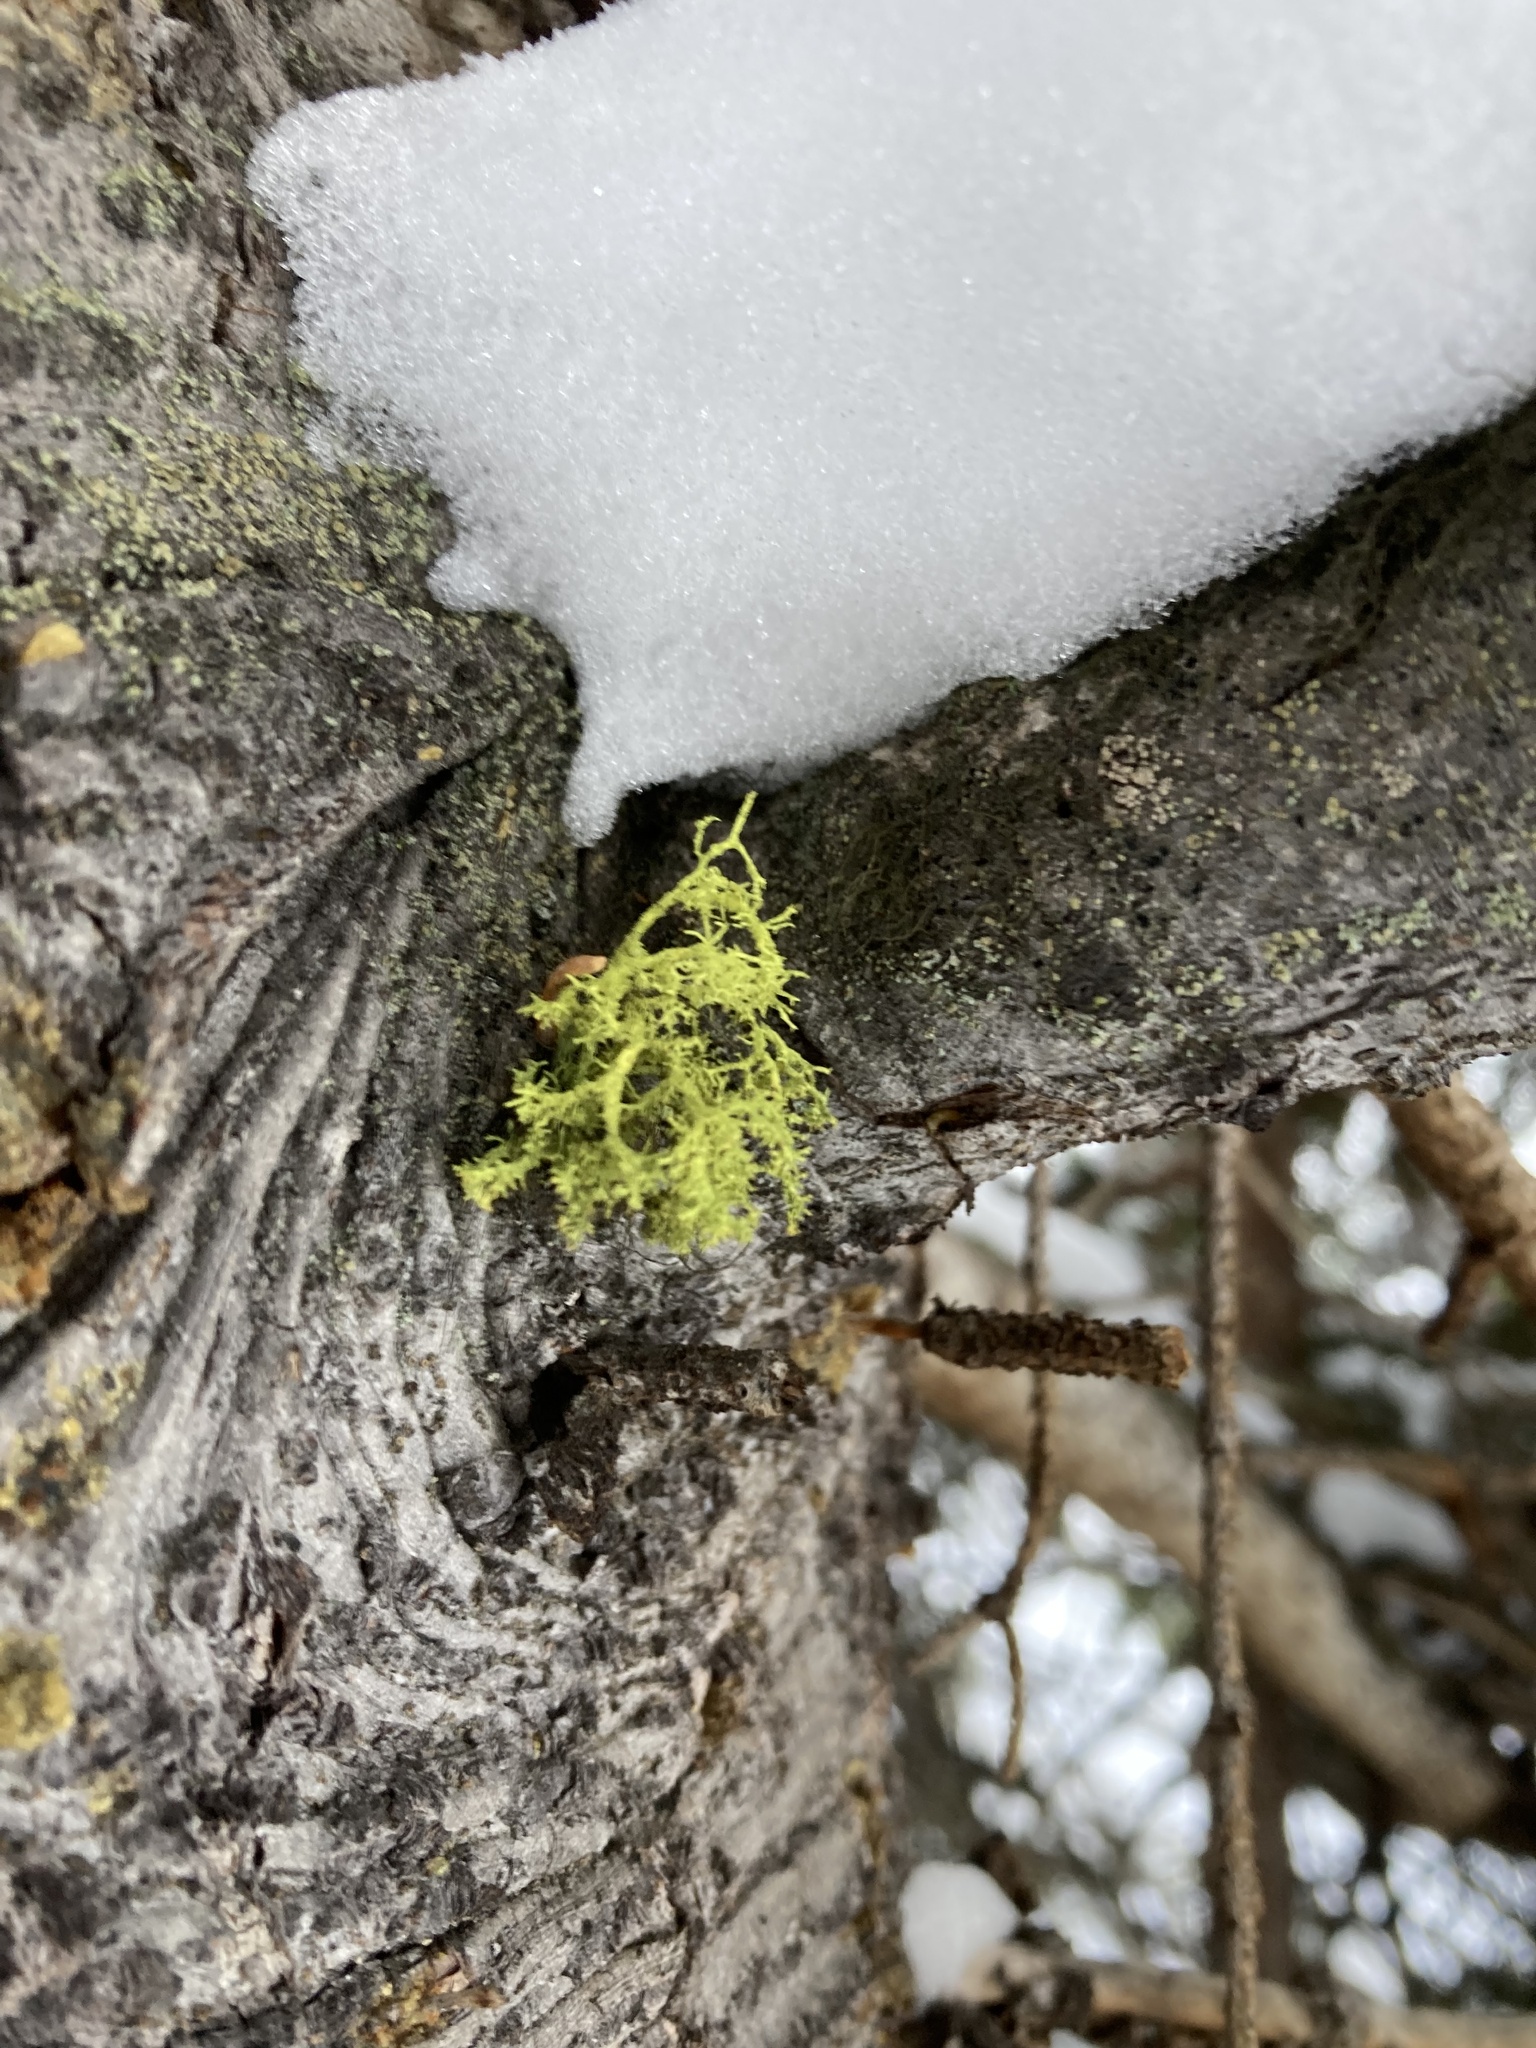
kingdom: Fungi
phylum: Ascomycota
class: Lecanoromycetes
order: Lecanorales
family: Parmeliaceae
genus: Letharia
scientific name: Letharia vulpina
